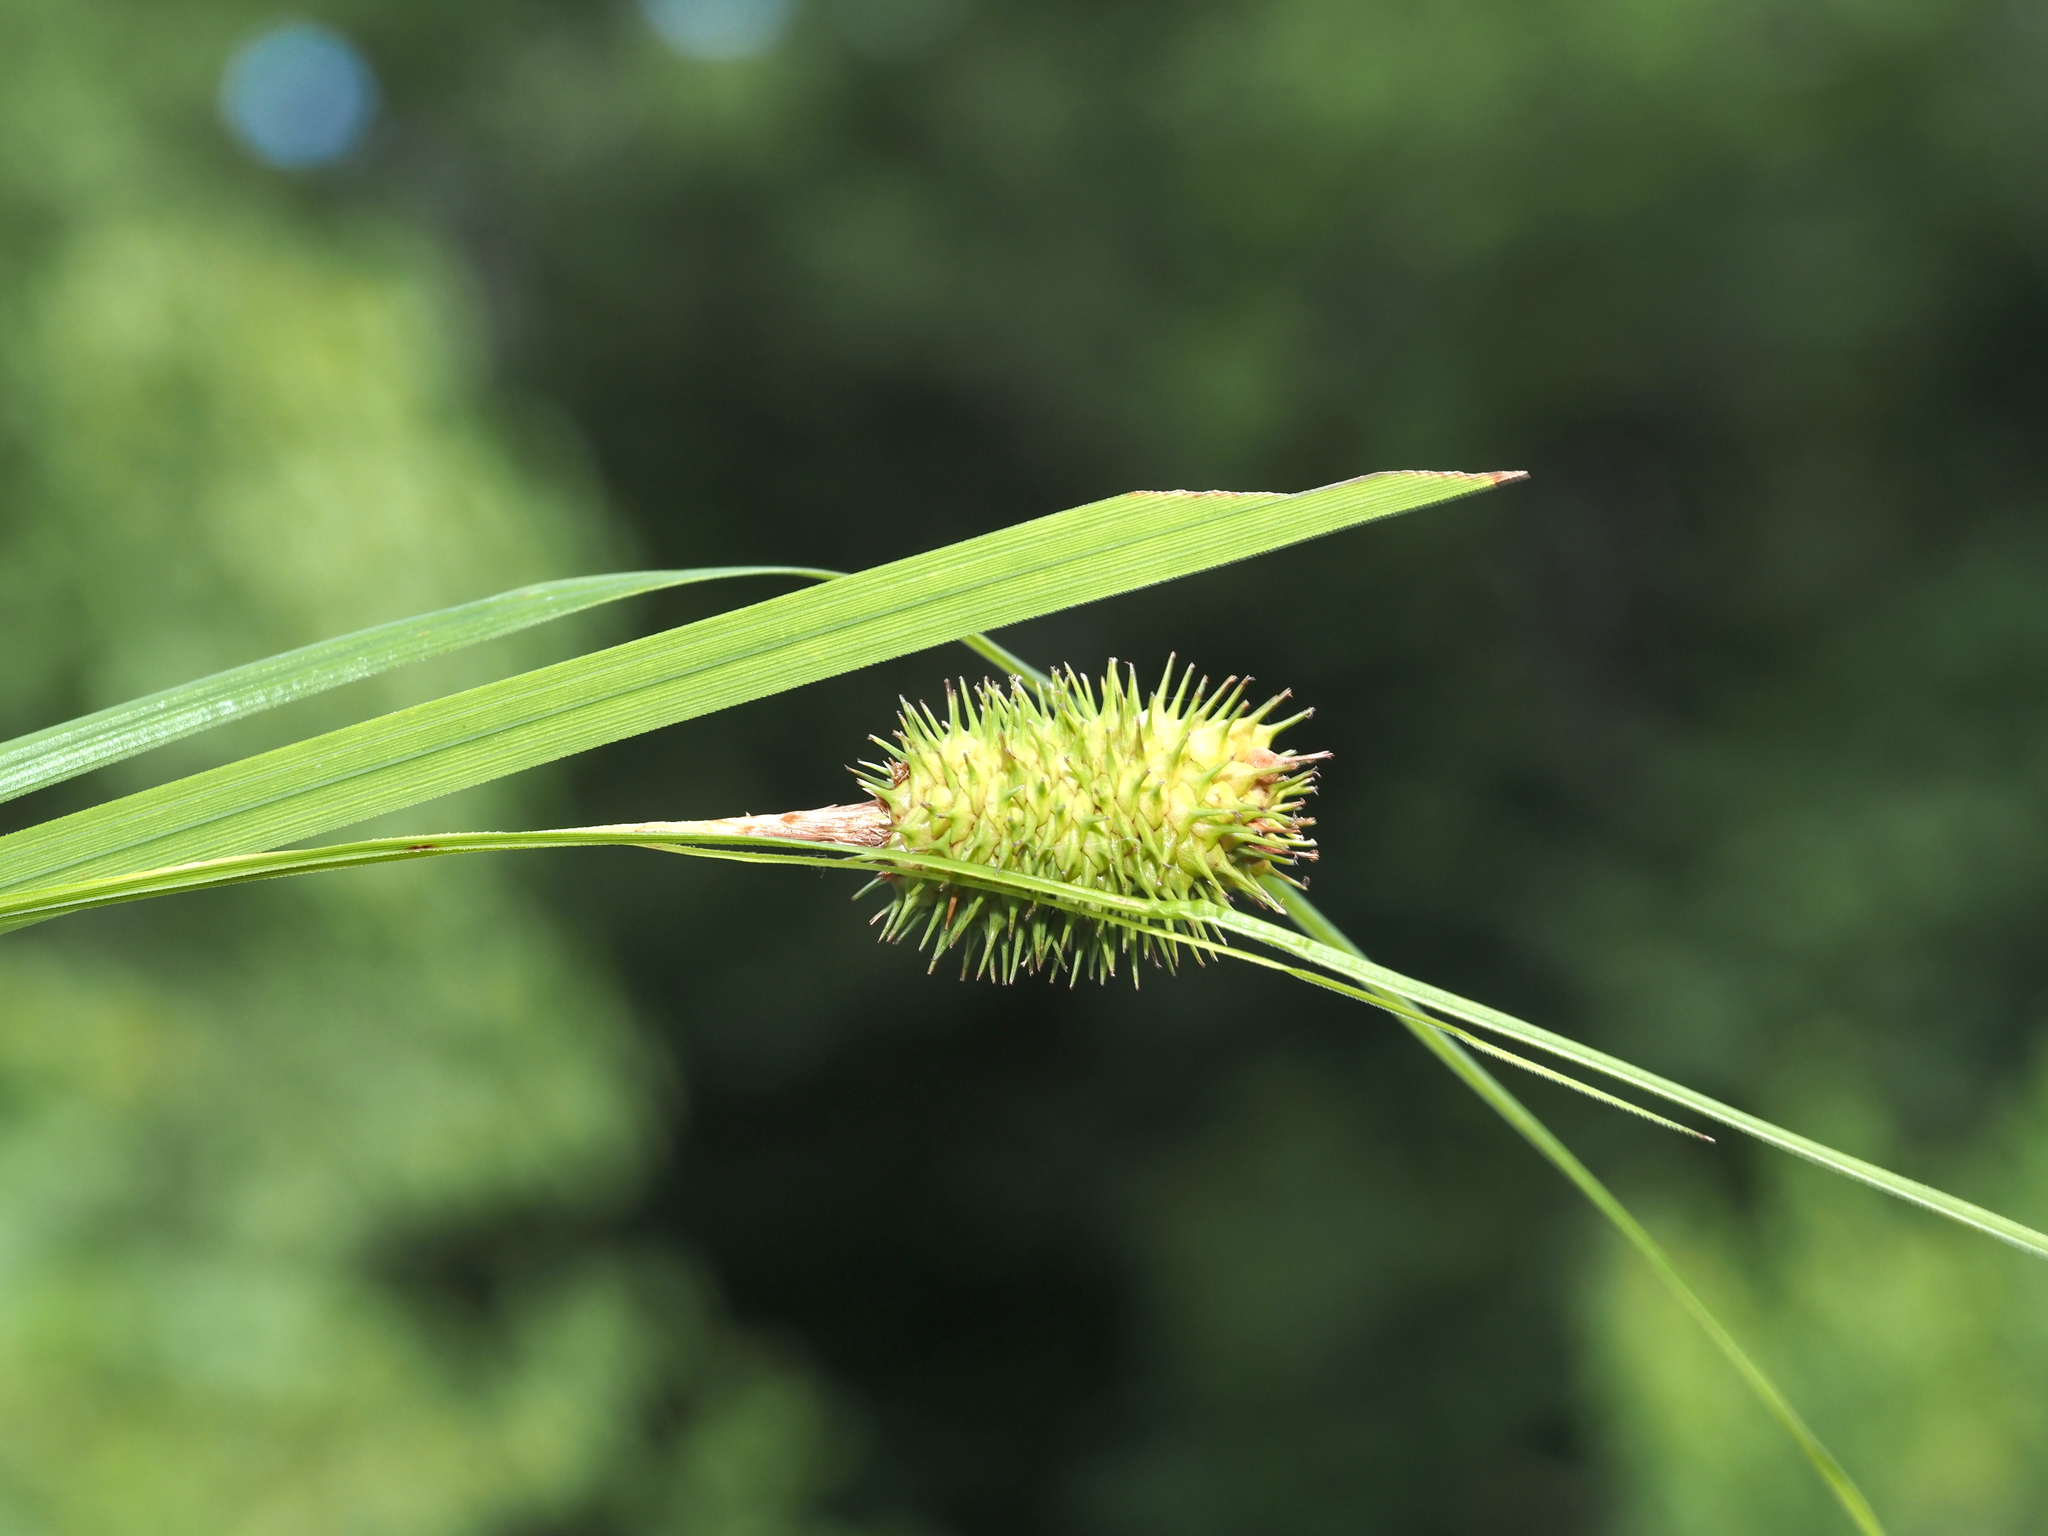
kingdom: Plantae
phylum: Tracheophyta
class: Liliopsida
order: Poales
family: Cyperaceae
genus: Carex
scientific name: Carex squarrosa
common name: Narrow-leaved cattail sedge
